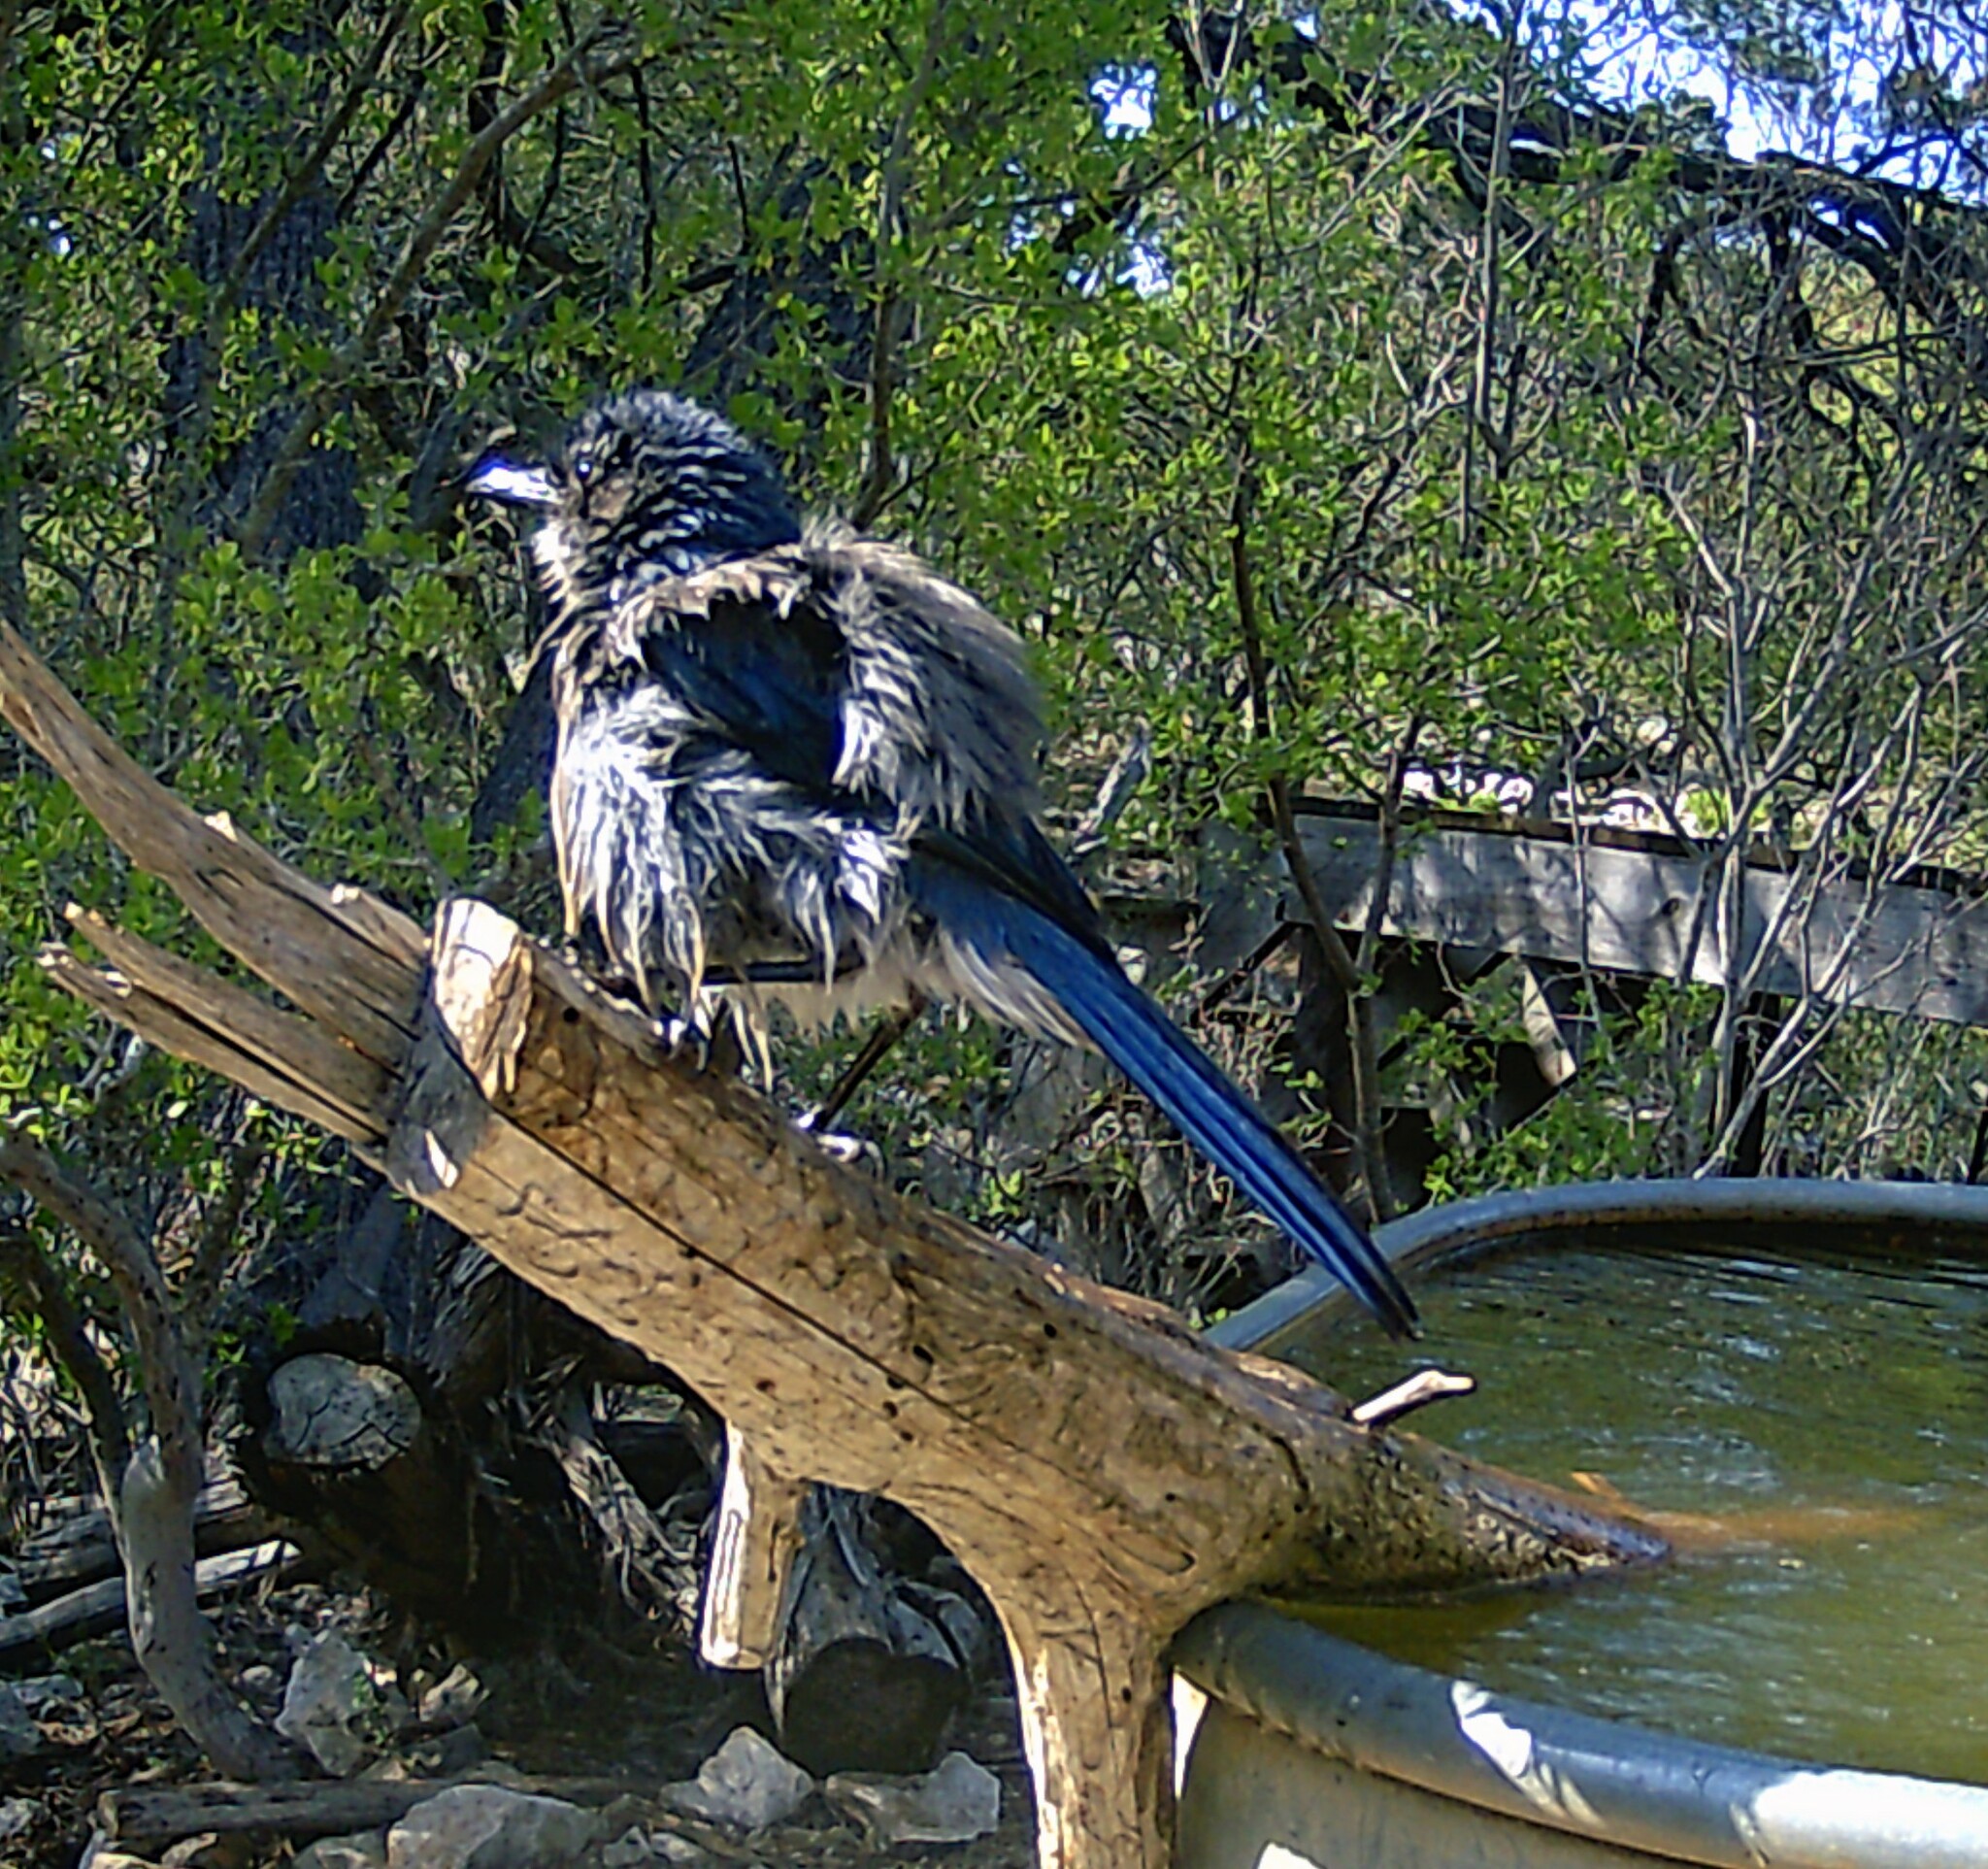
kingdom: Animalia
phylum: Chordata
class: Aves
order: Passeriformes
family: Corvidae
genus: Aphelocoma
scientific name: Aphelocoma woodhouseii
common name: Woodhouse's scrub-jay
